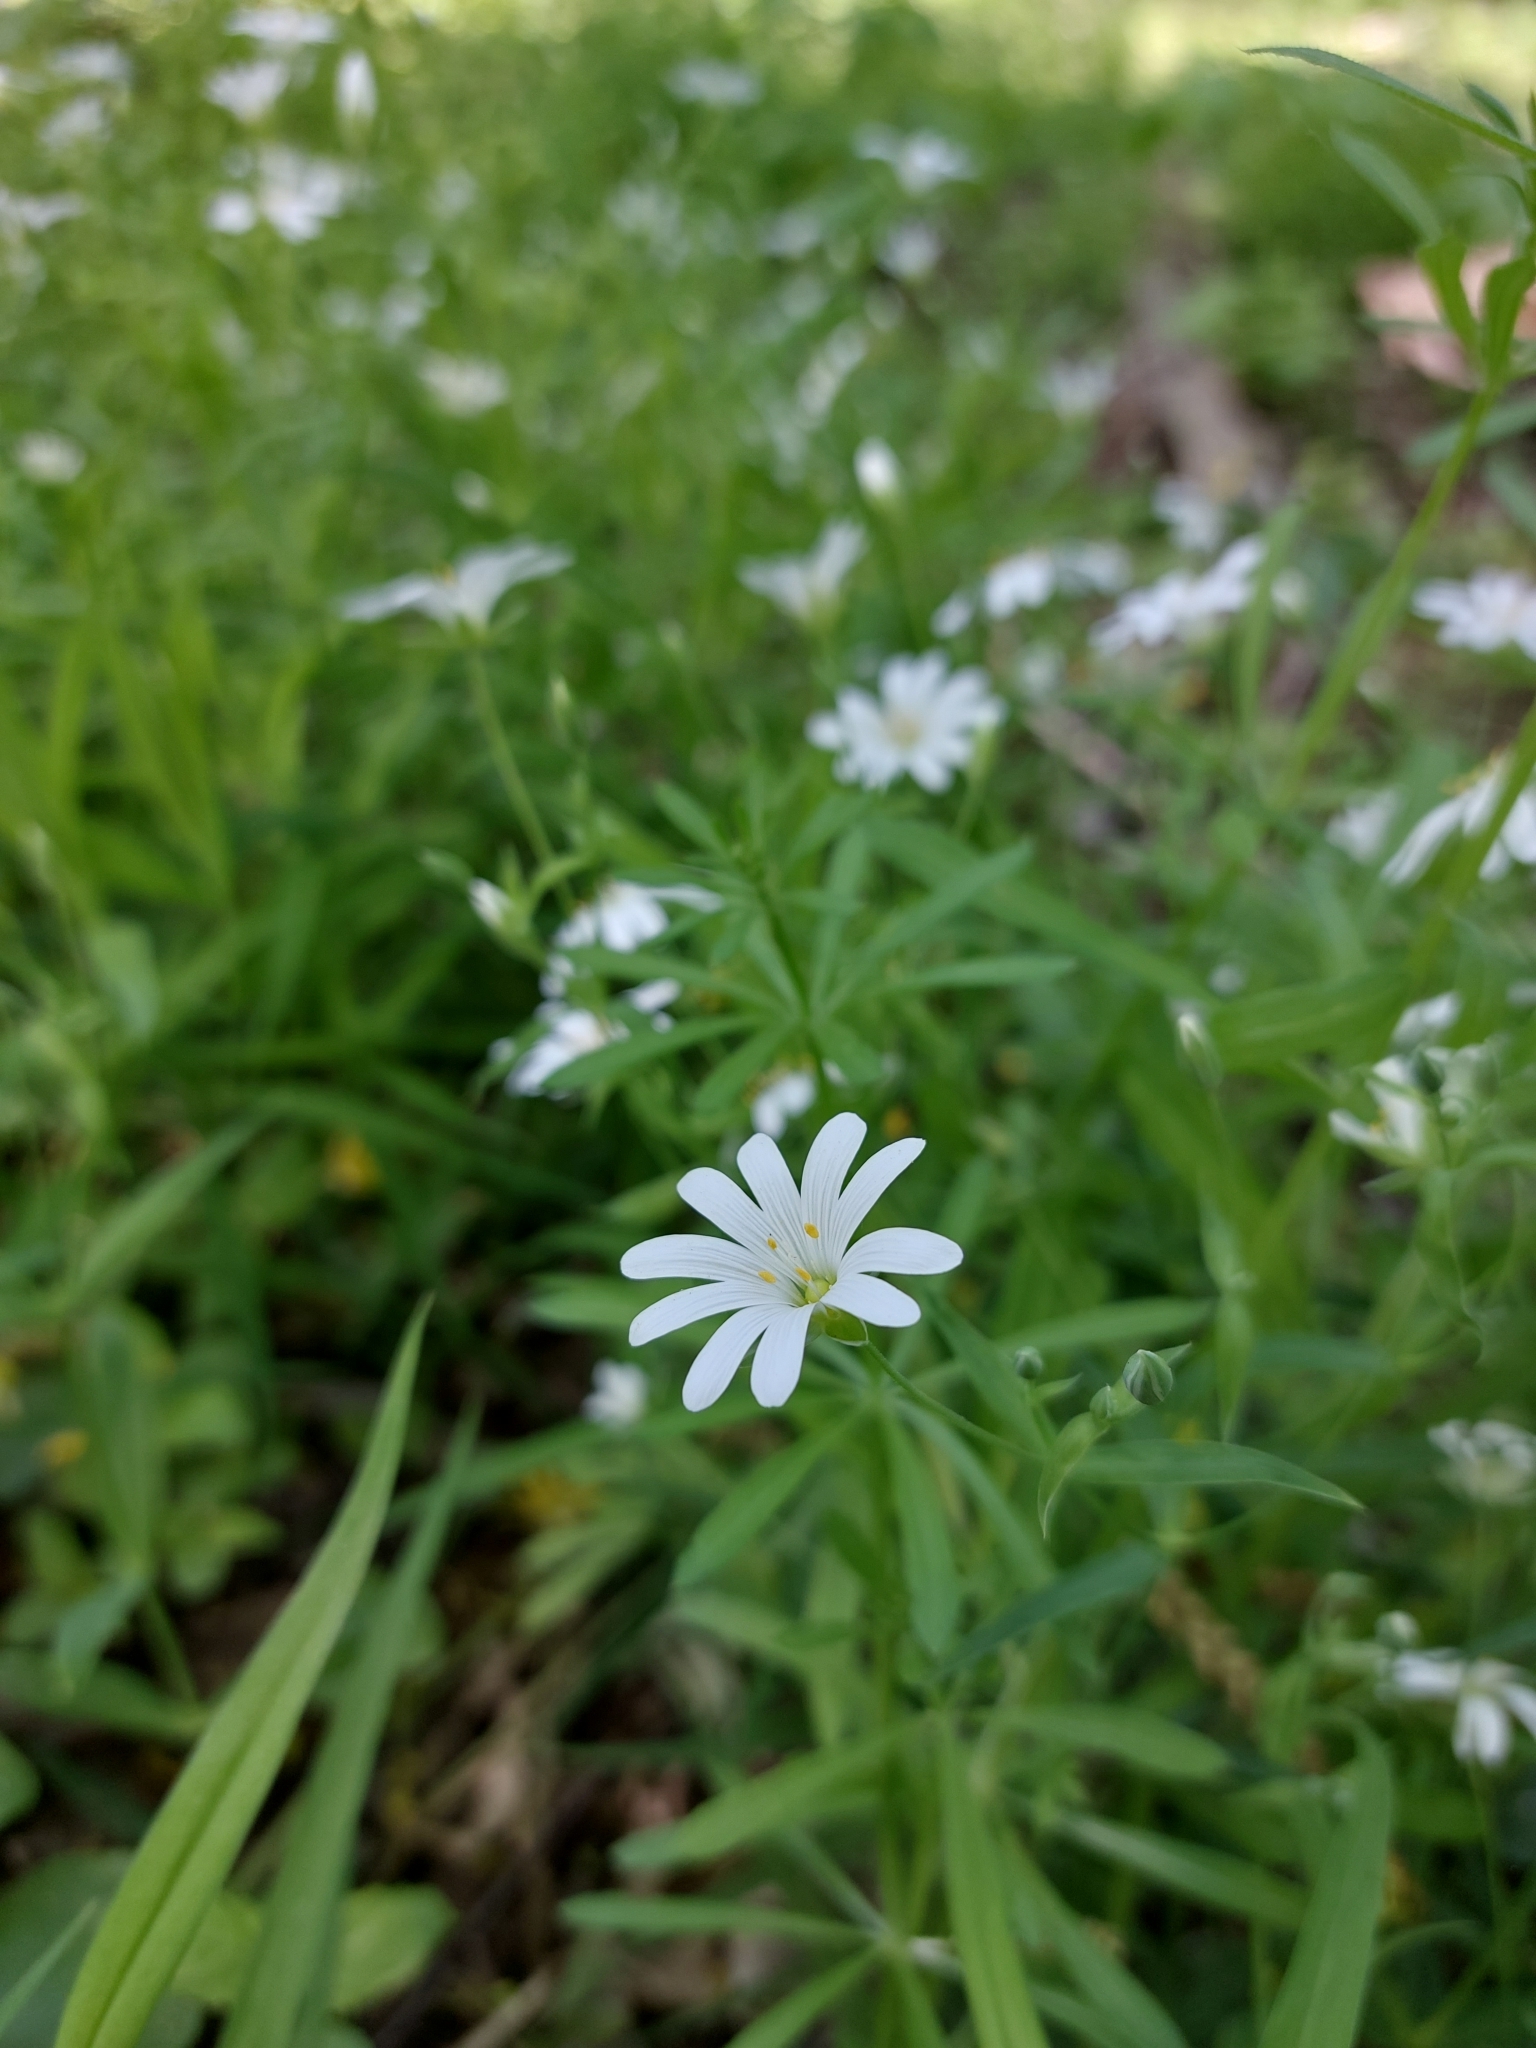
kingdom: Plantae
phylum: Tracheophyta
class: Magnoliopsida
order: Caryophyllales
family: Caryophyllaceae
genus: Rabelera
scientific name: Rabelera holostea
